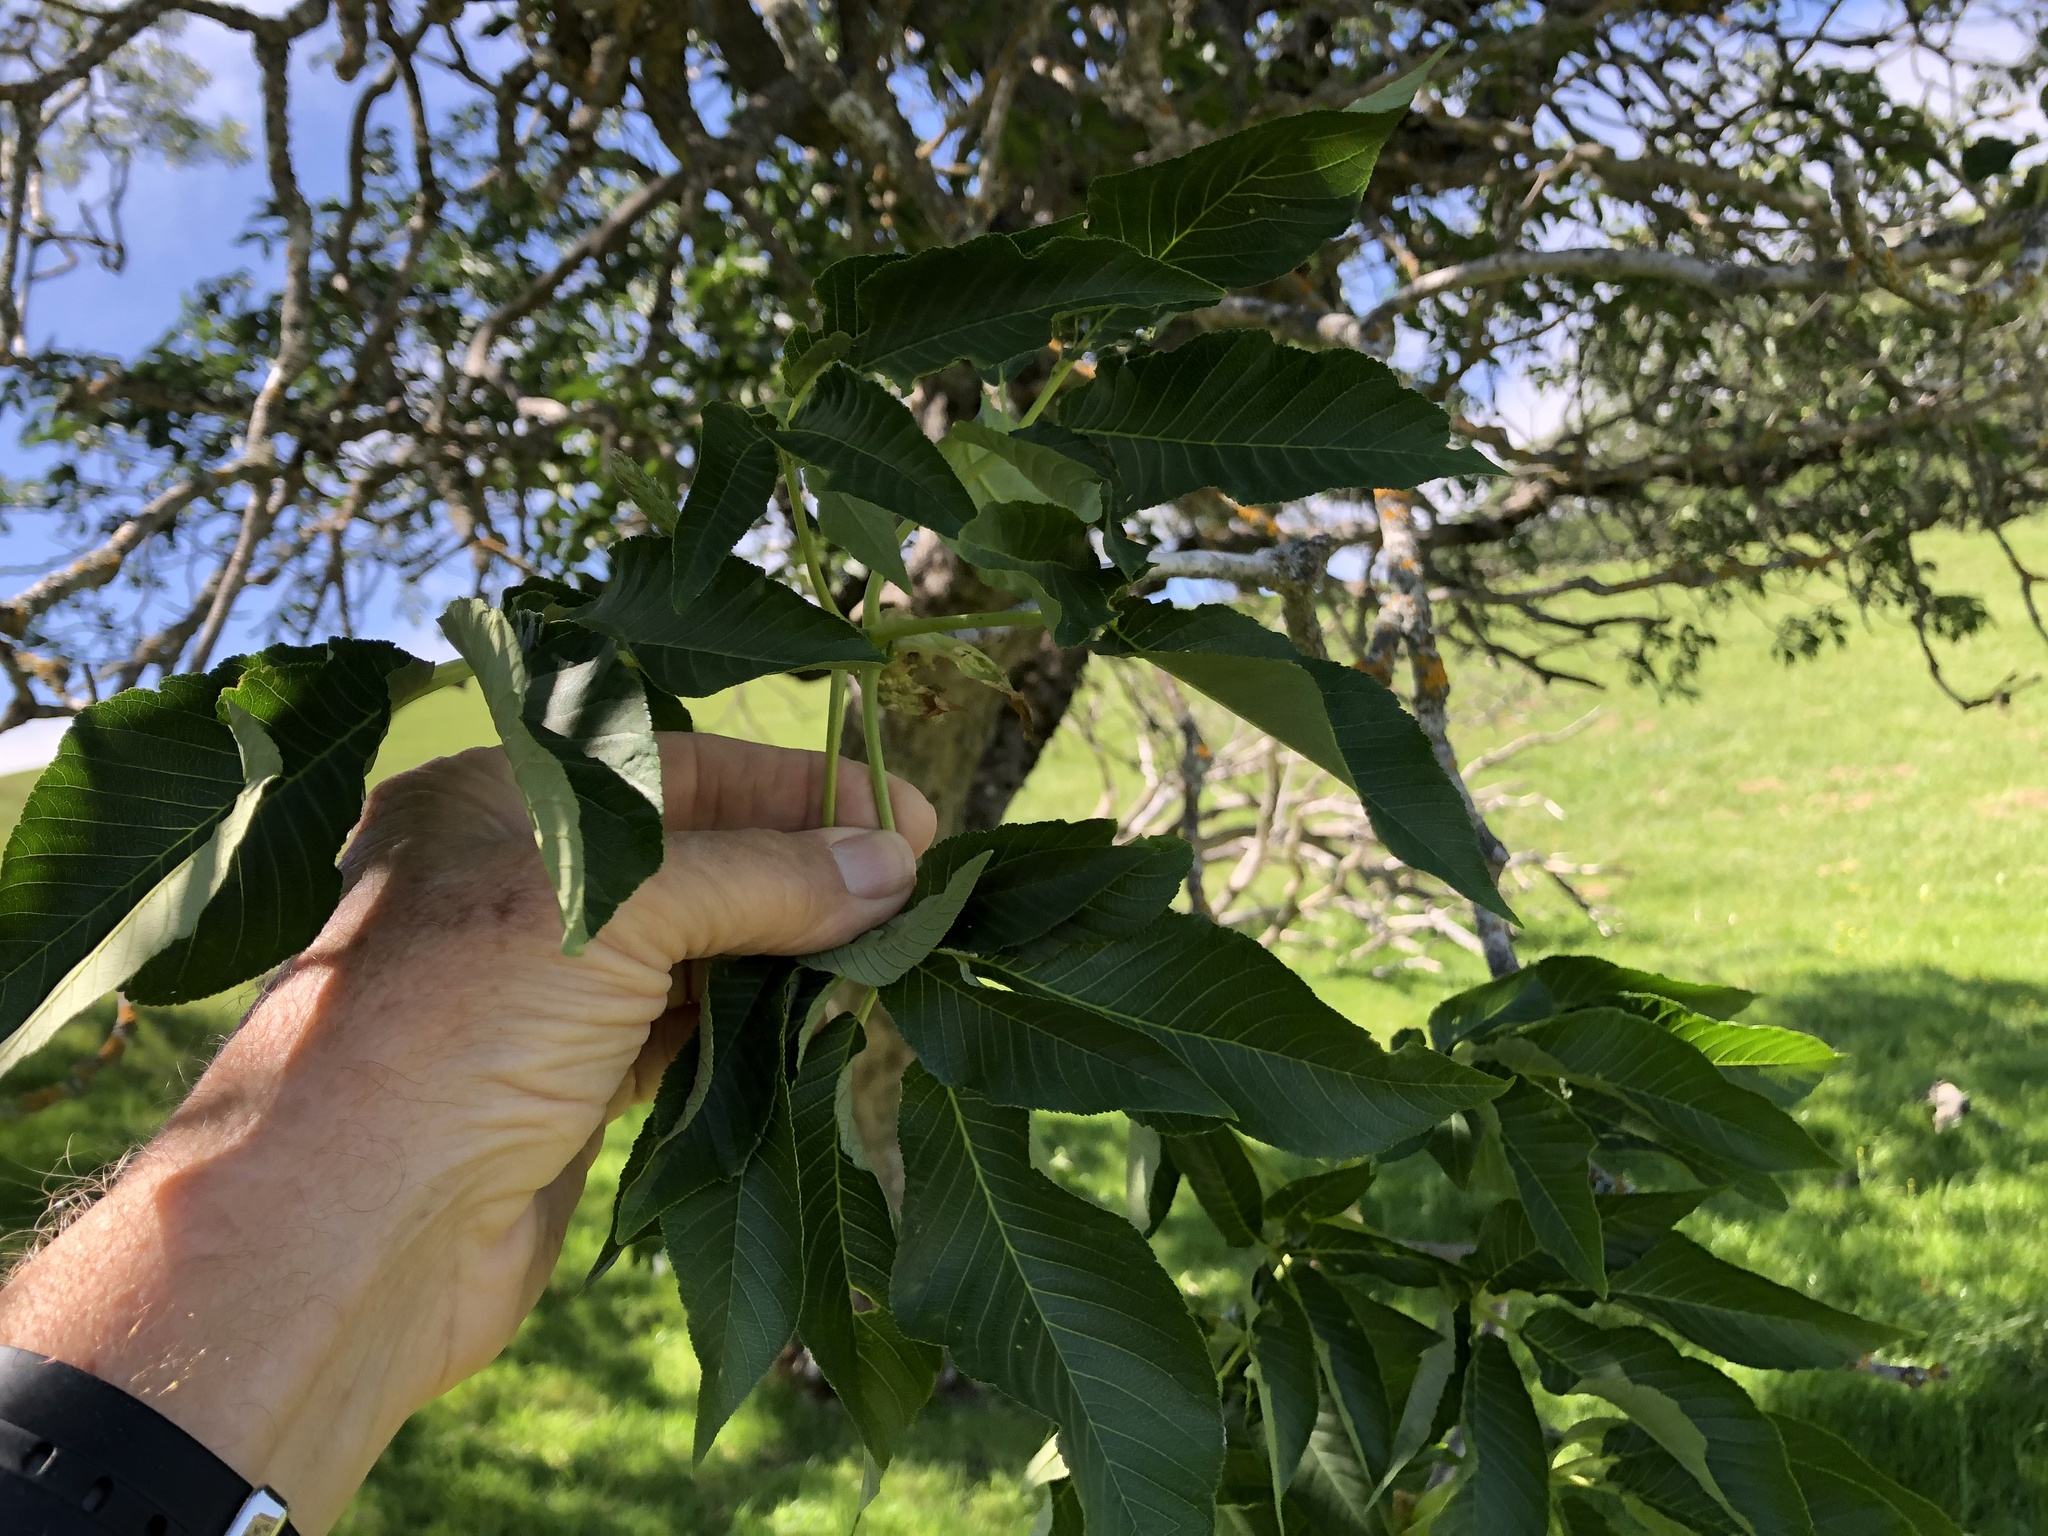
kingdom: Plantae
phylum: Tracheophyta
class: Magnoliopsida
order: Sapindales
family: Sapindaceae
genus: Aesculus
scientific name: Aesculus californica
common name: California buckeye
